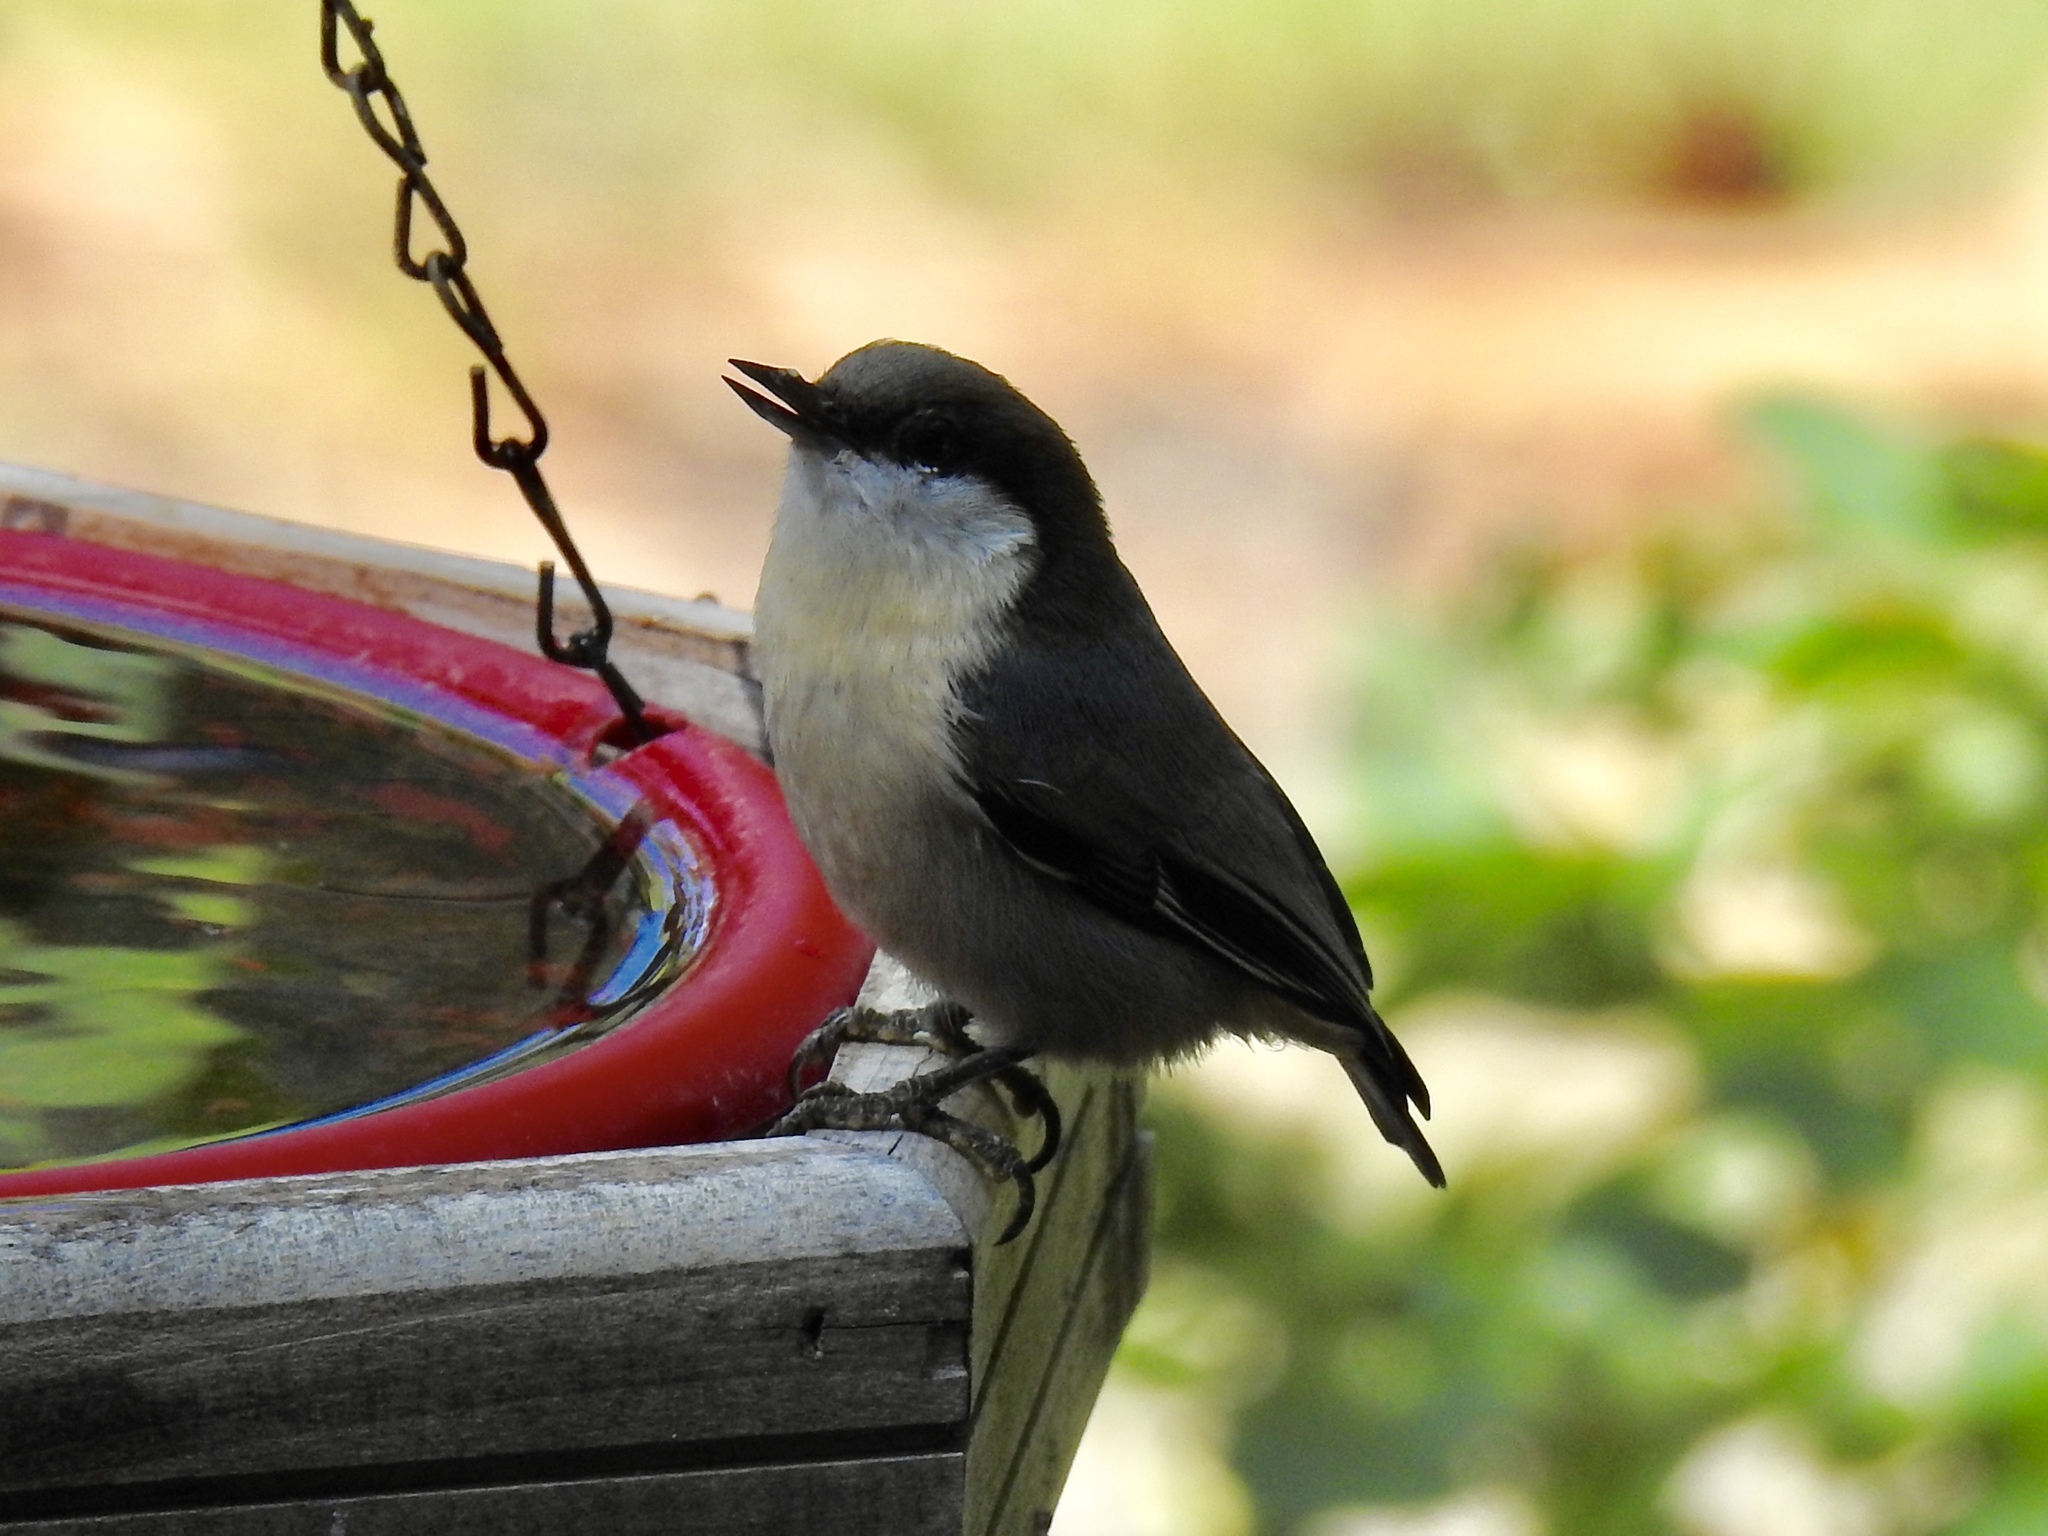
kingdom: Animalia
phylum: Chordata
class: Aves
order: Passeriformes
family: Sittidae
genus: Sitta
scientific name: Sitta pygmaea
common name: Pygmy nuthatch
